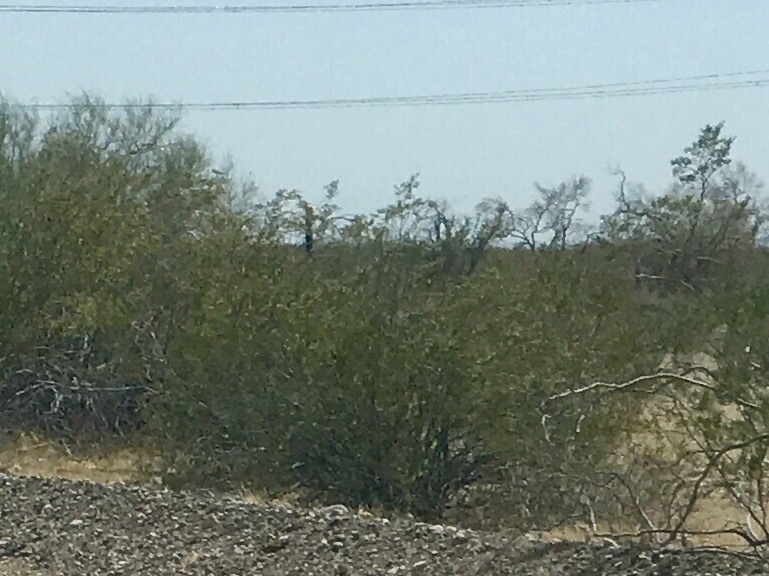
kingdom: Plantae
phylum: Tracheophyta
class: Magnoliopsida
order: Zygophyllales
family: Zygophyllaceae
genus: Larrea
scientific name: Larrea tridentata
